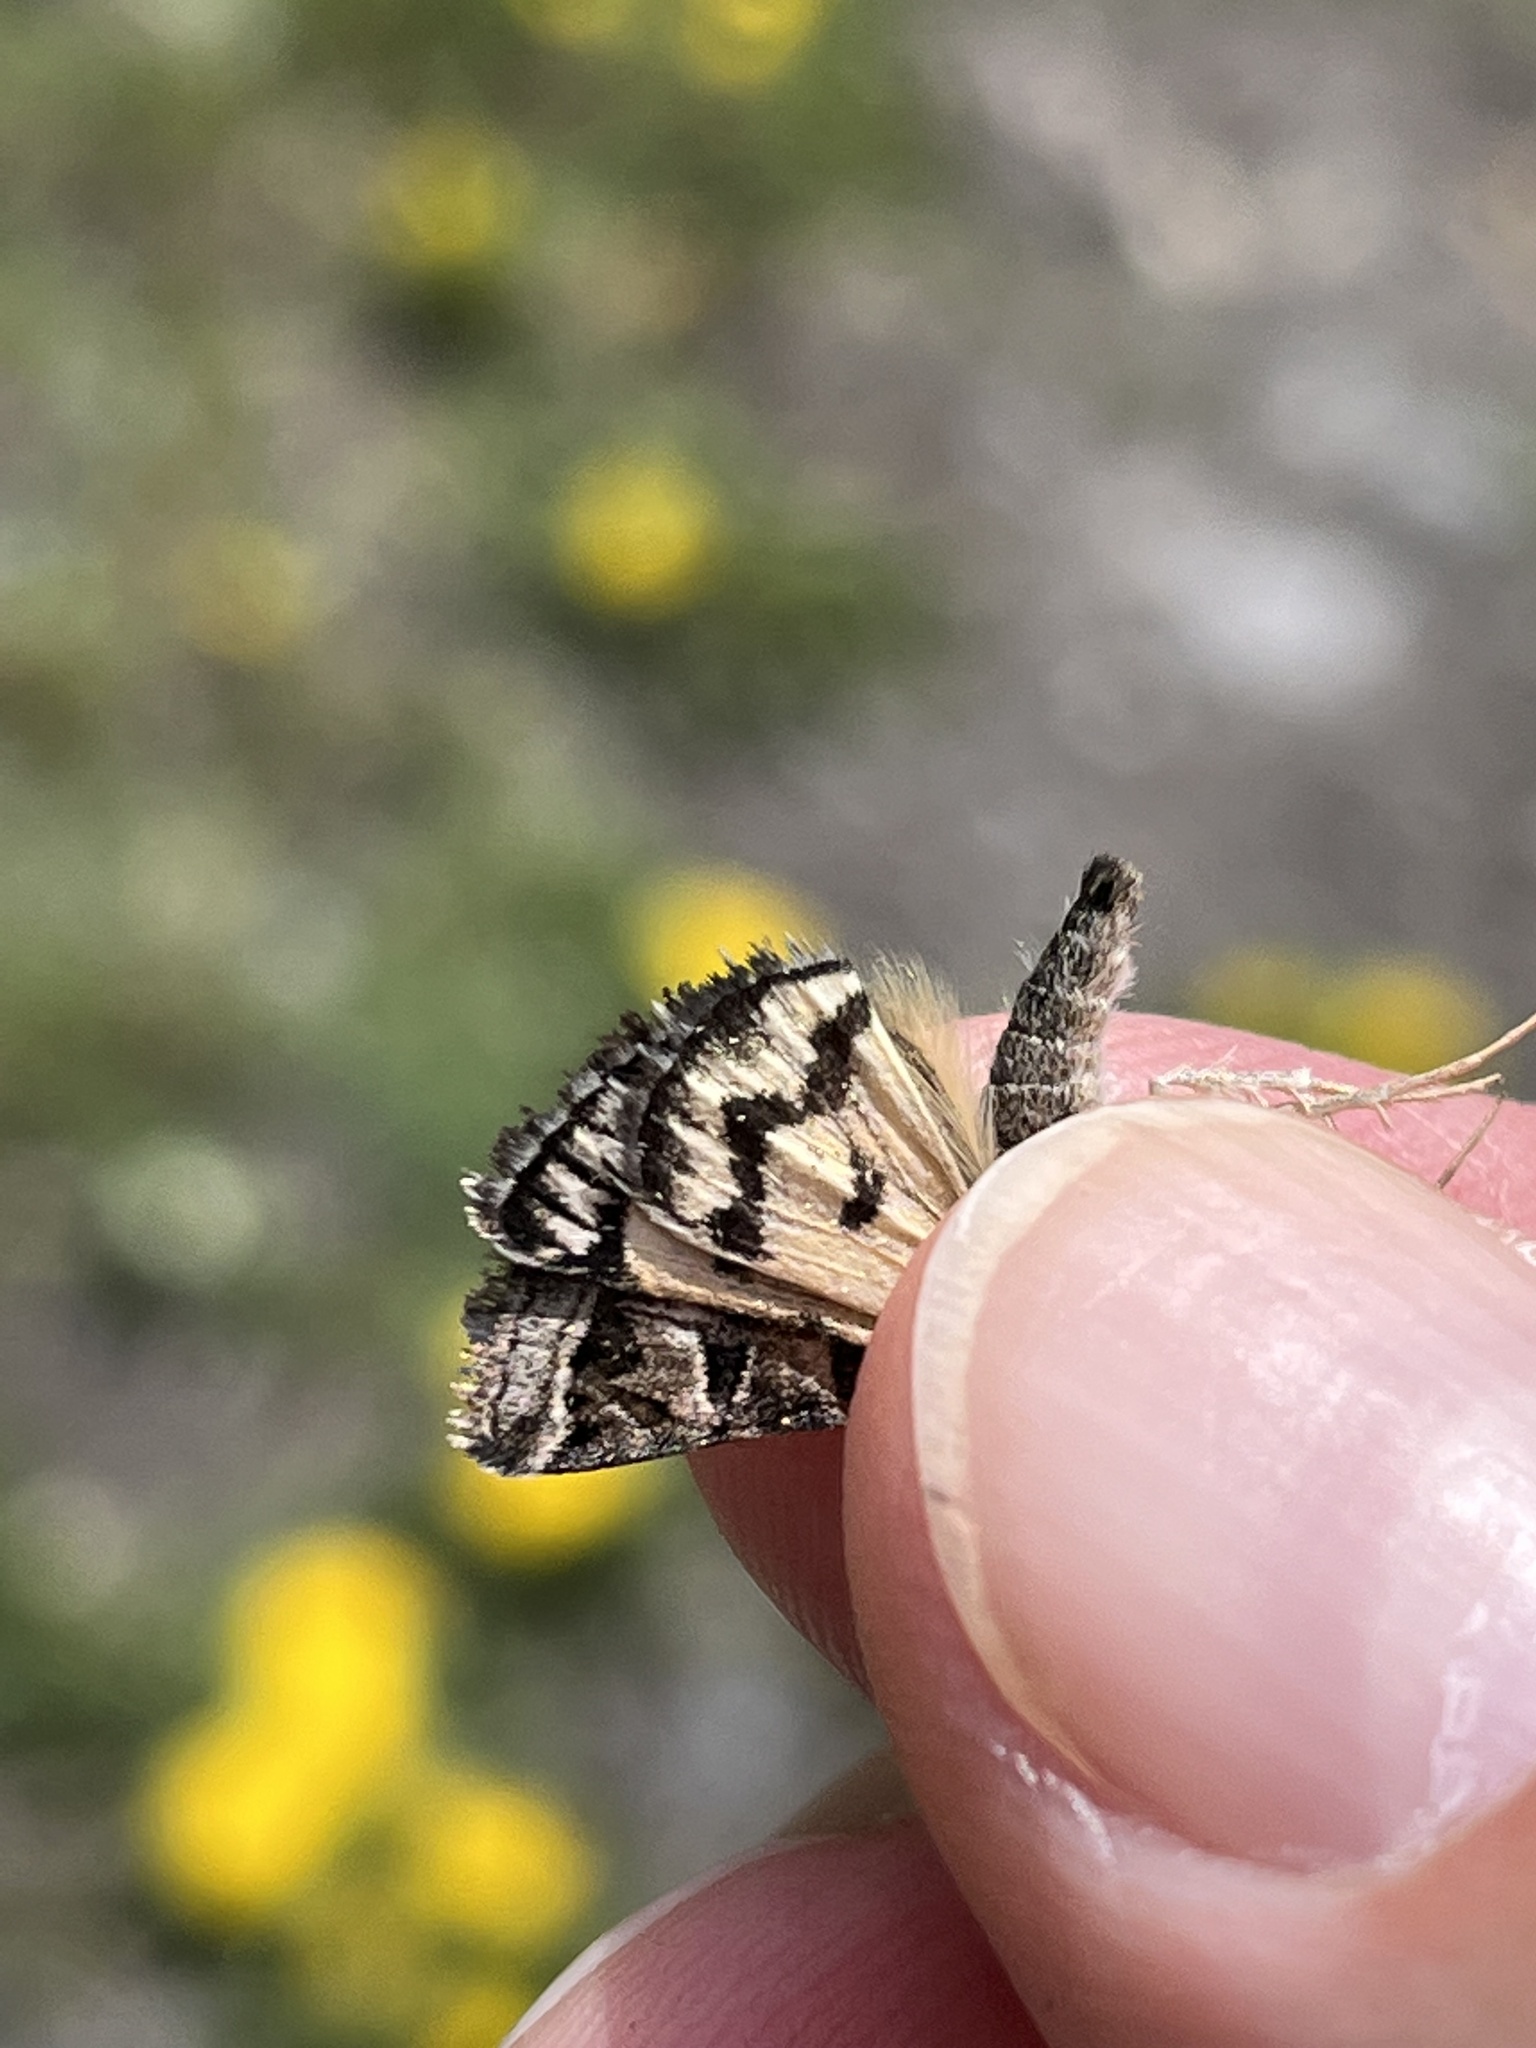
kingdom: Animalia
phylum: Arthropoda
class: Insecta
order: Lepidoptera
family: Erebidae
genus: Drasteria
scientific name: Drasteria petricola
